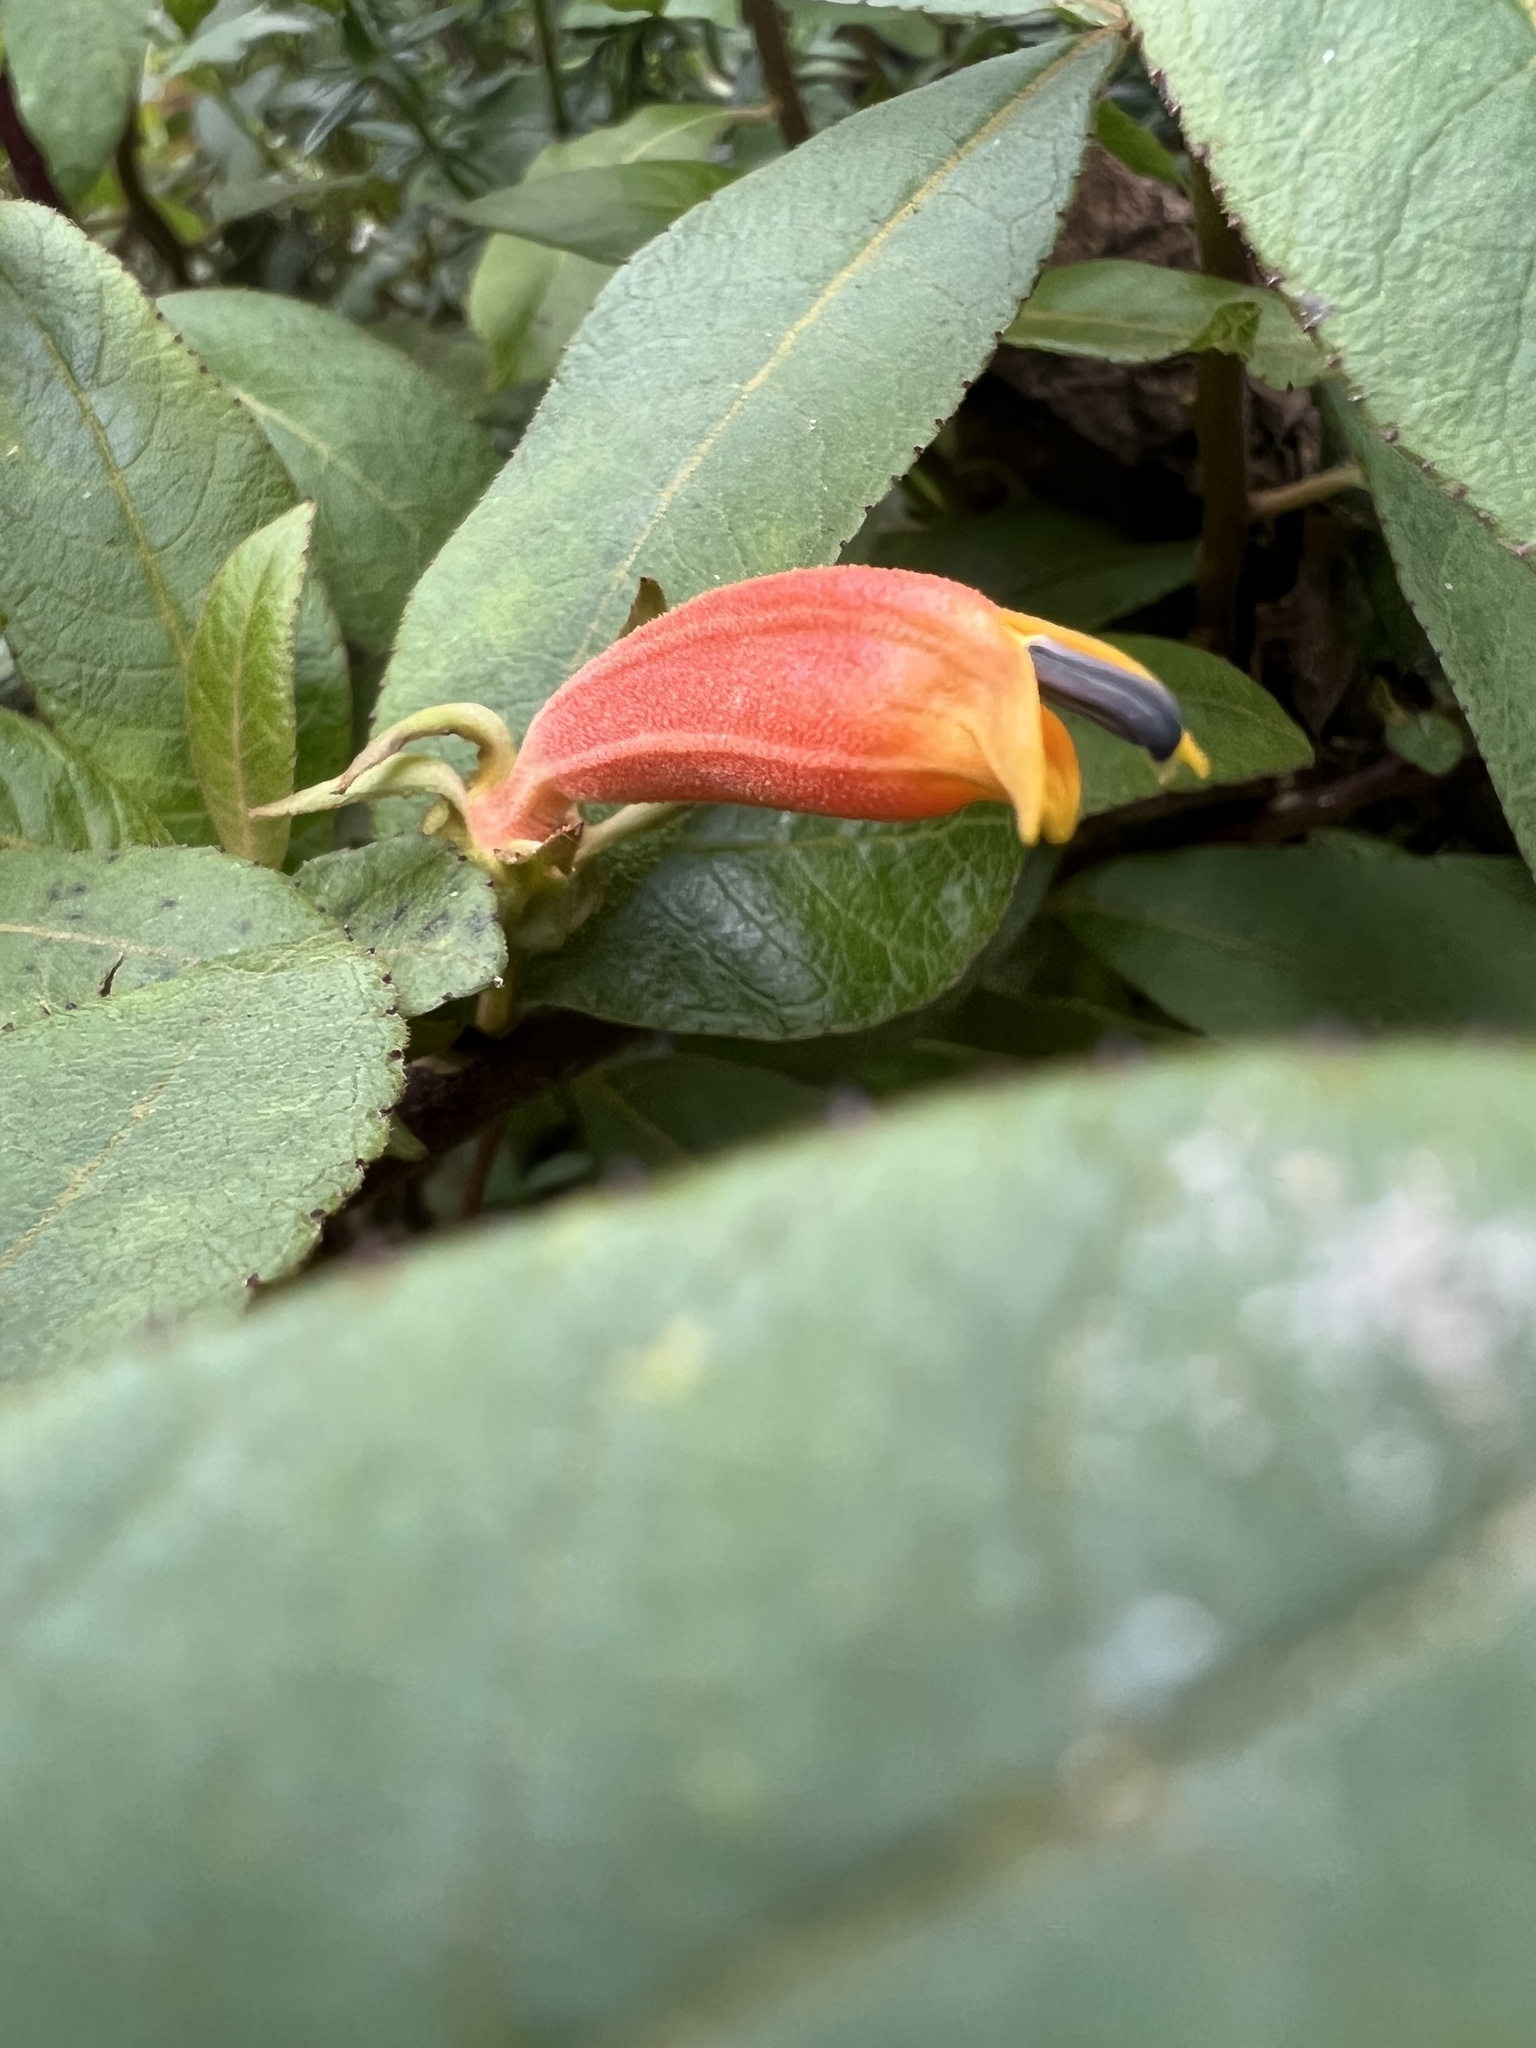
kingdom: Plantae
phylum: Tracheophyta
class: Magnoliopsida
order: Asterales
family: Campanulaceae
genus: Centropogon
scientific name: Centropogon asclepiadeus
